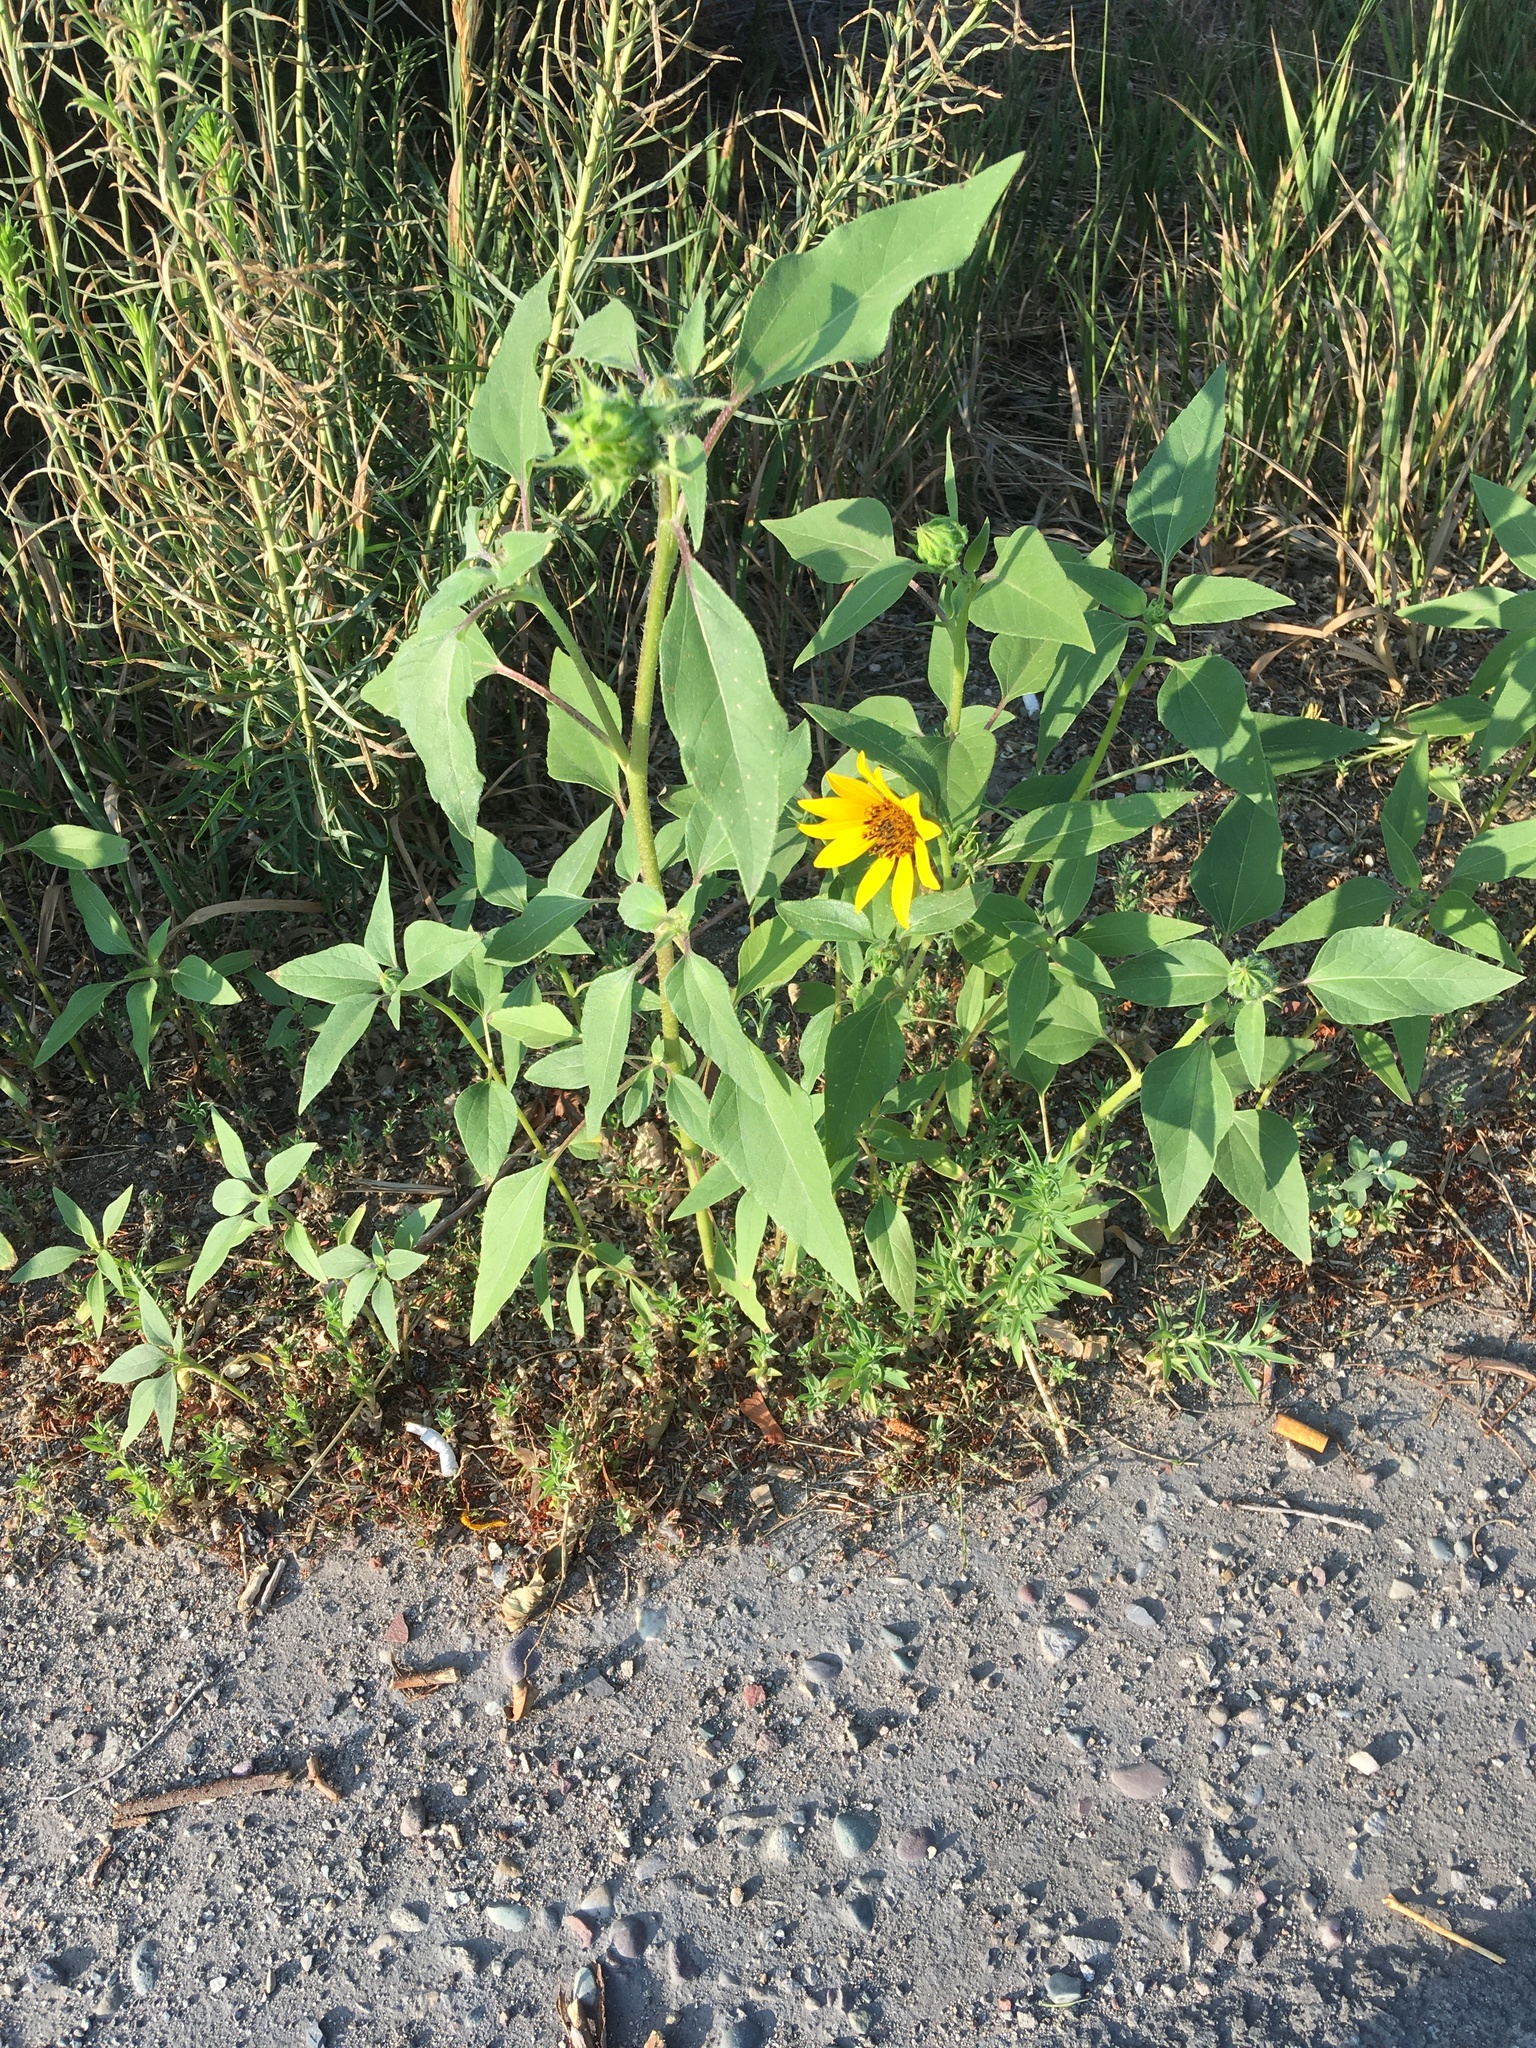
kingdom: Plantae
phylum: Tracheophyta
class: Magnoliopsida
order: Asterales
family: Asteraceae
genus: Helianthus
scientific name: Helianthus annuus
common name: Sunflower
